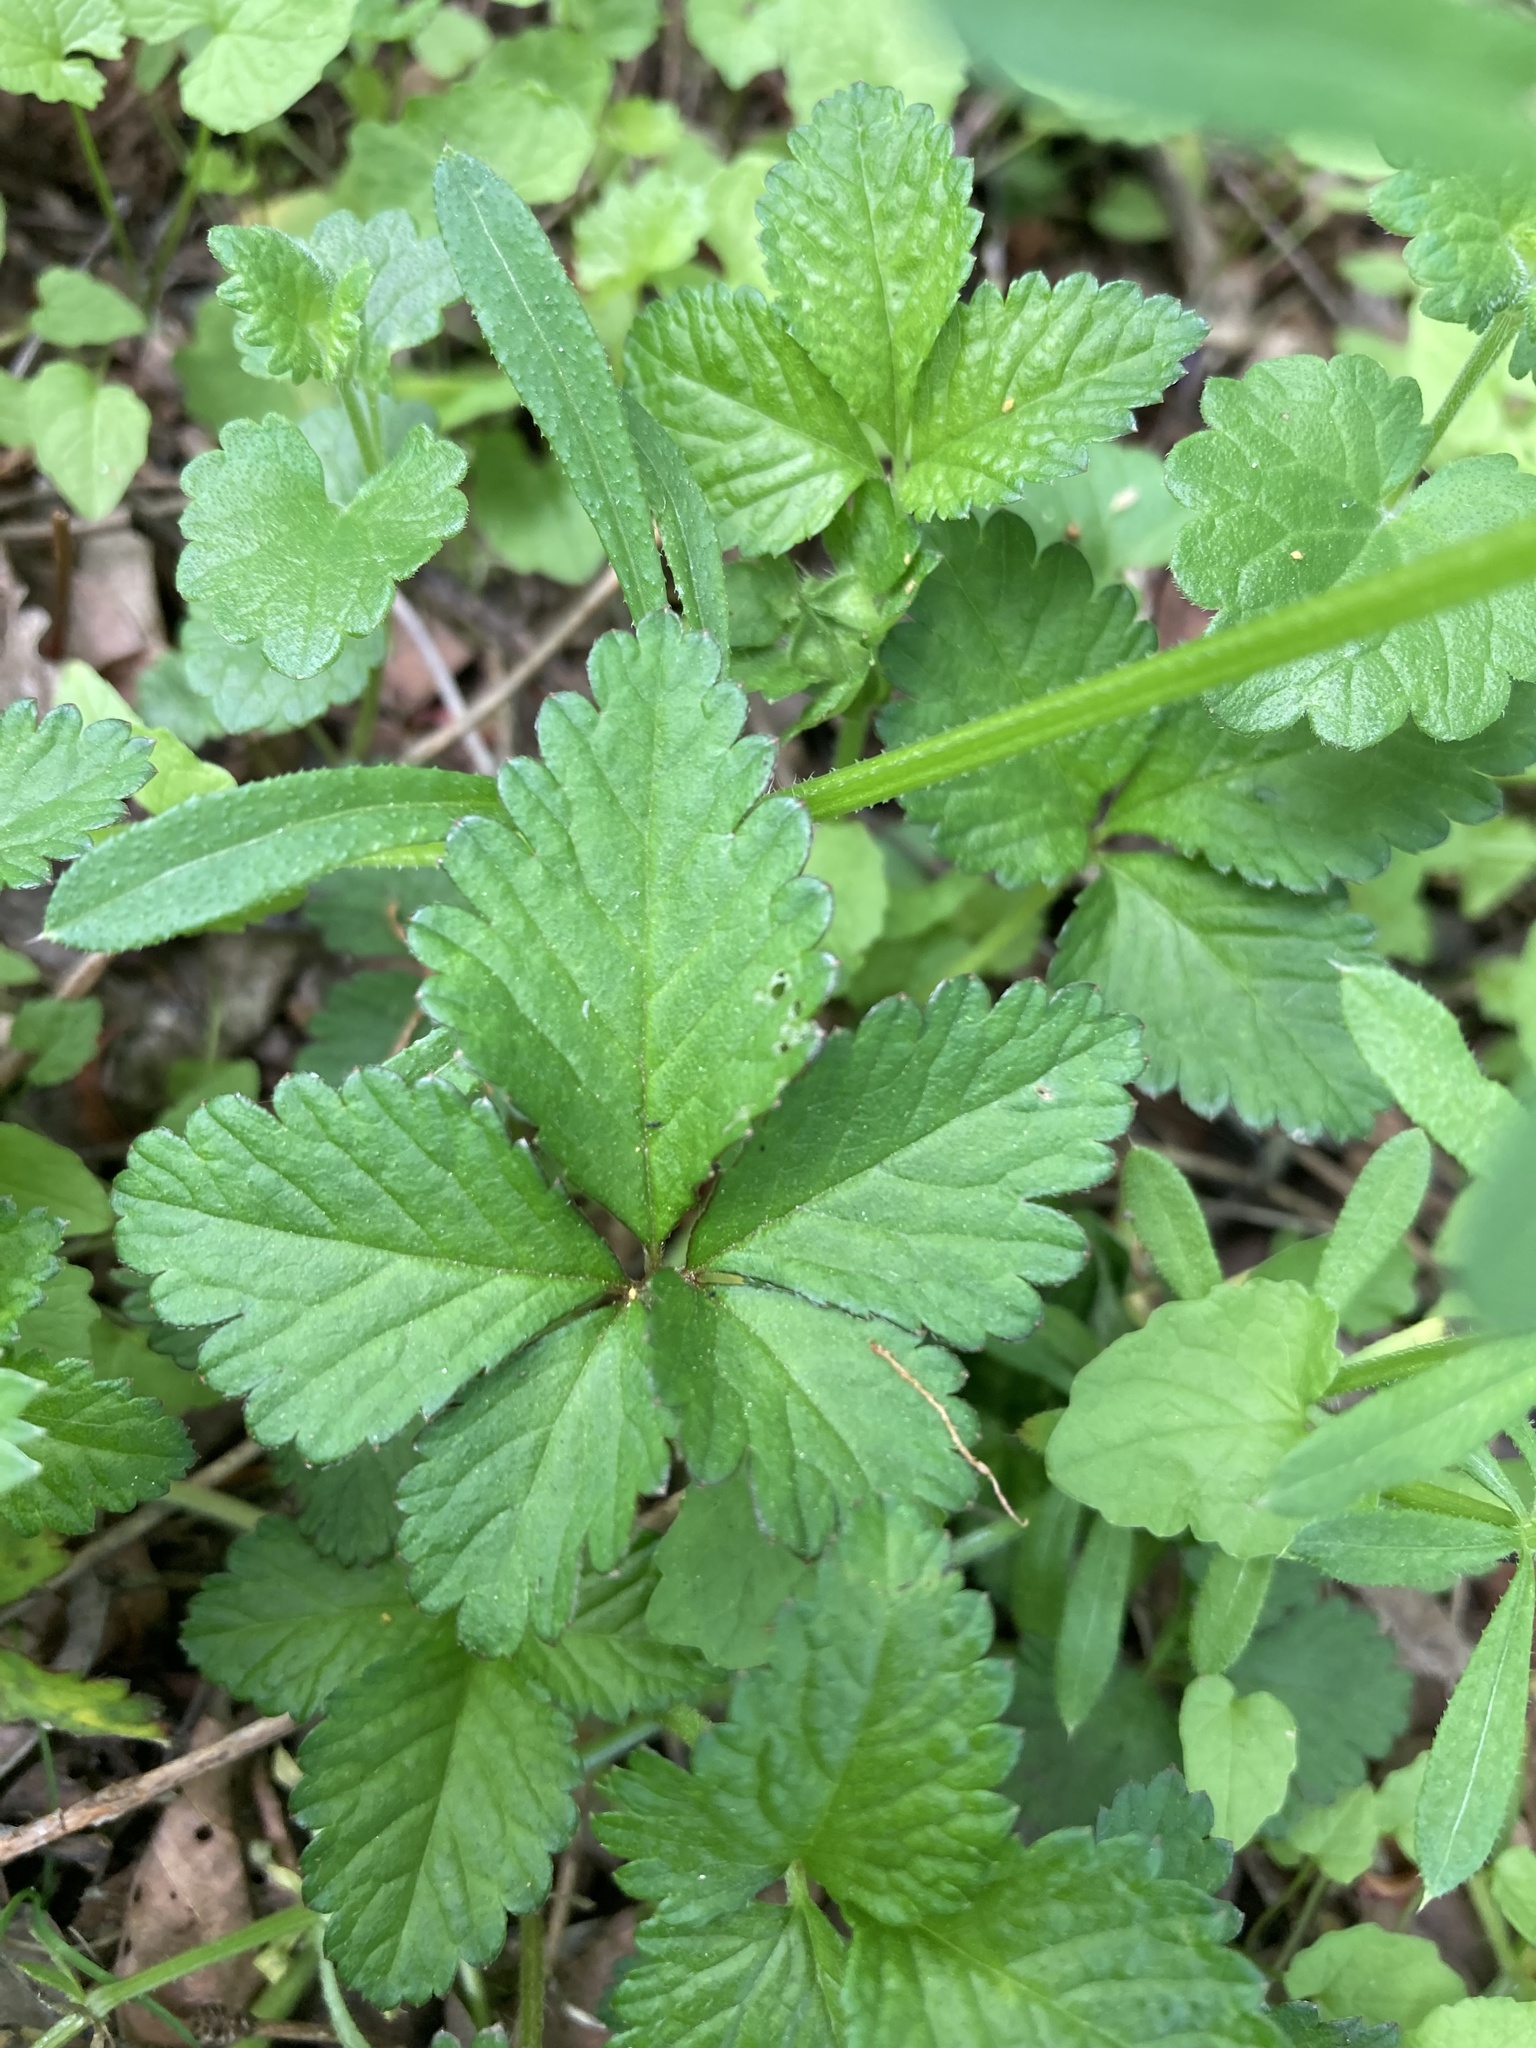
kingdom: Plantae
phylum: Tracheophyta
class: Magnoliopsida
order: Rosales
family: Rosaceae
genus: Potentilla
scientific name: Potentilla indica
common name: Yellow-flowered strawberry
